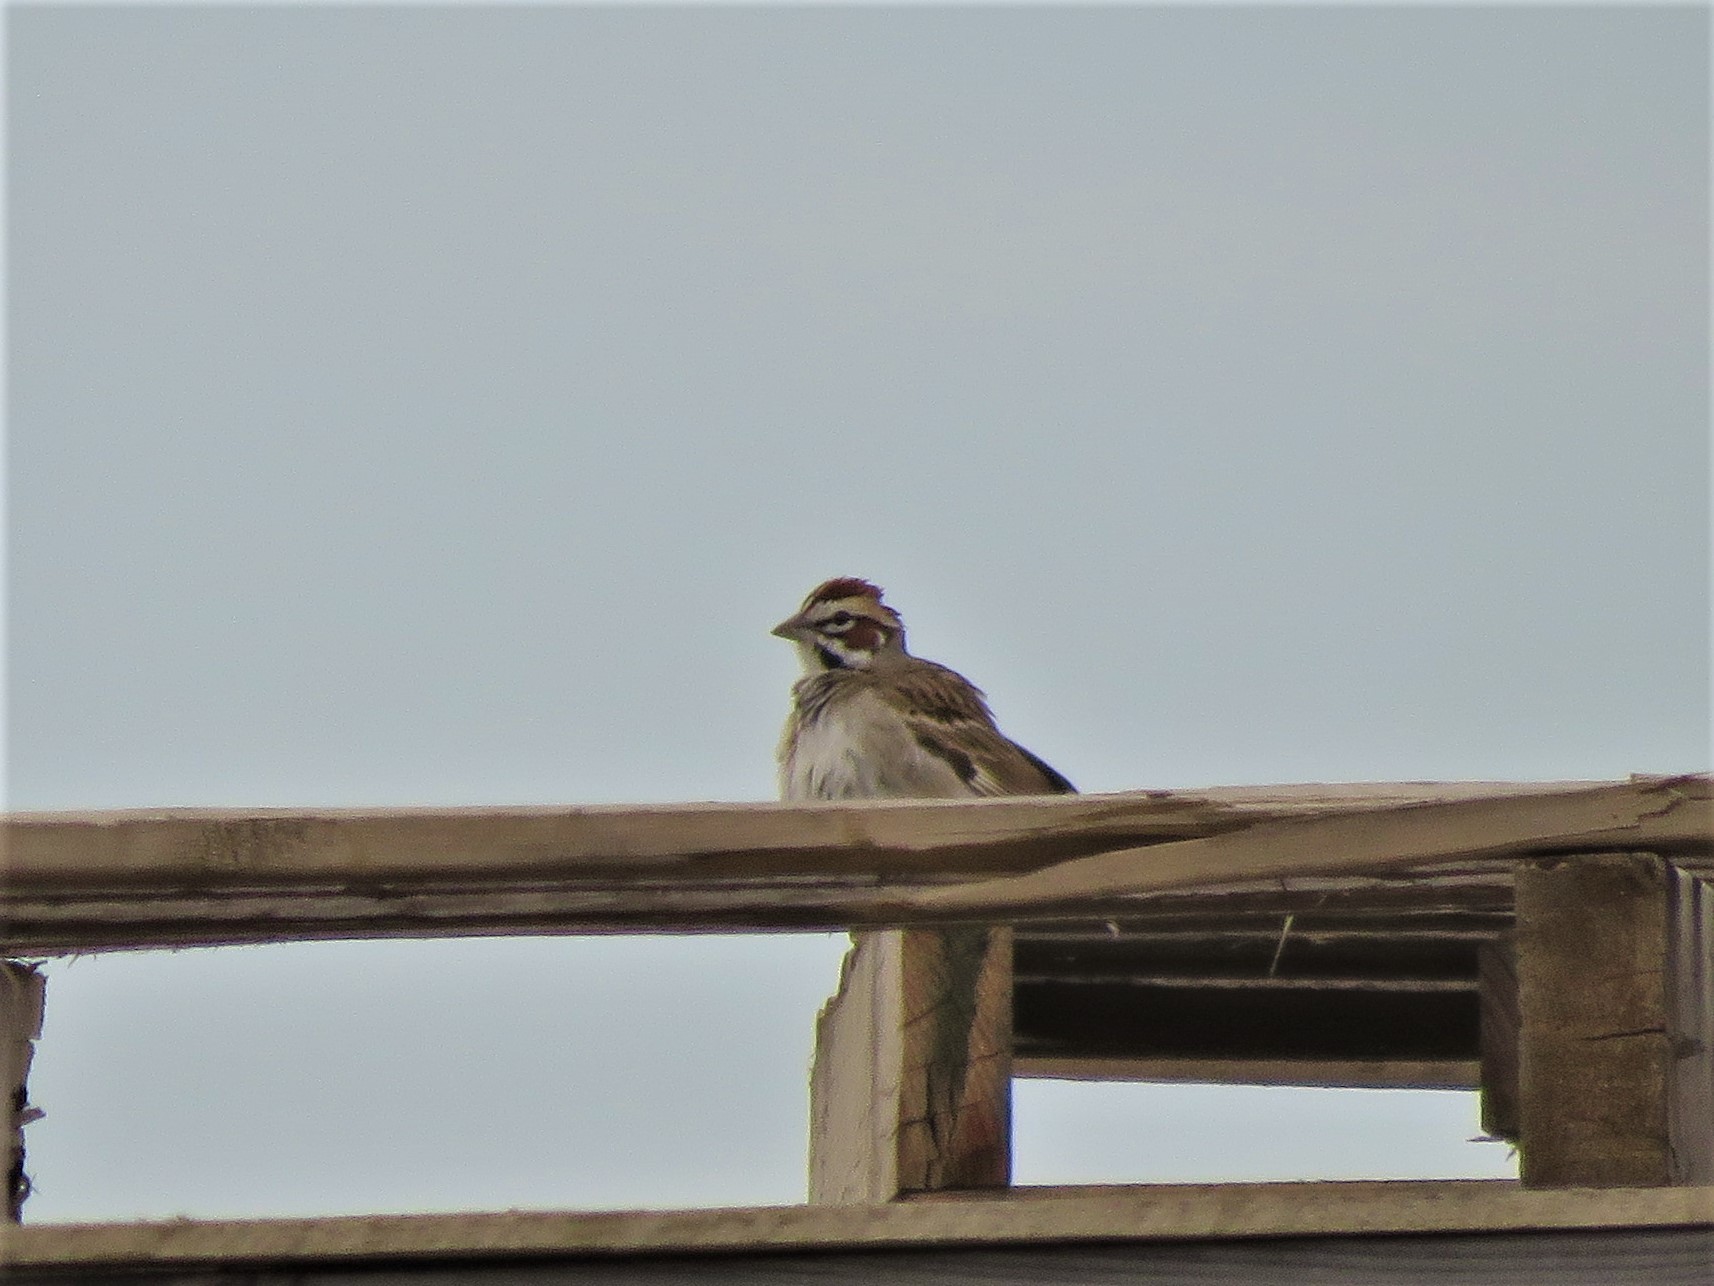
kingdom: Animalia
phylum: Chordata
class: Aves
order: Passeriformes
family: Passerellidae
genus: Chondestes
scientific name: Chondestes grammacus
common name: Lark sparrow
